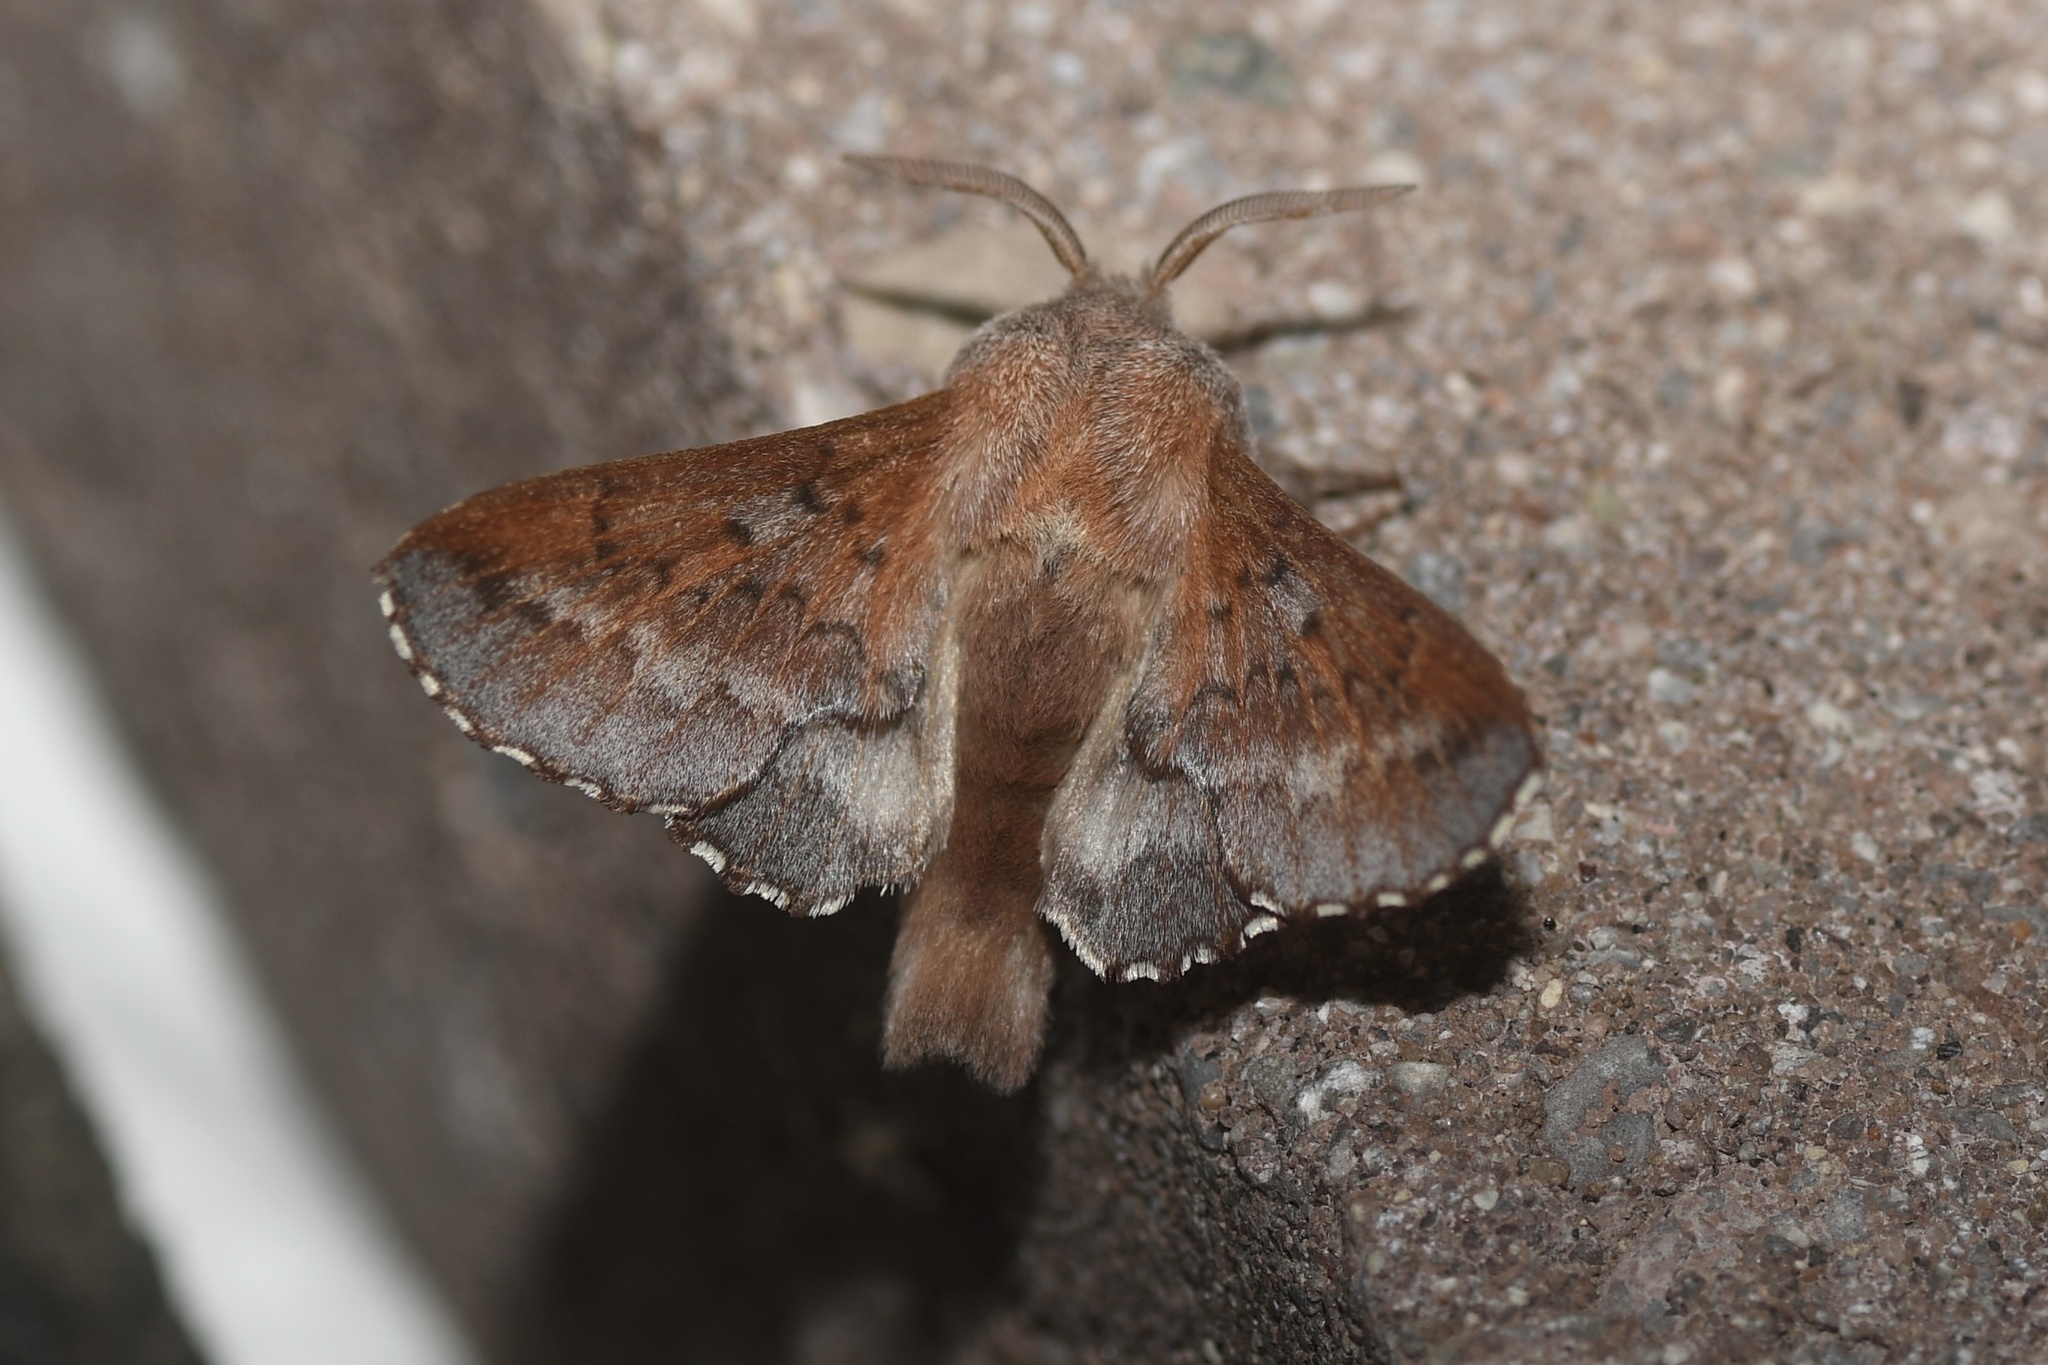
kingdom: Animalia
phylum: Arthropoda
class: Insecta
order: Lepidoptera
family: Lasiocampidae
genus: Phyllodesma
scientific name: Phyllodesma americana
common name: American lappet moth
